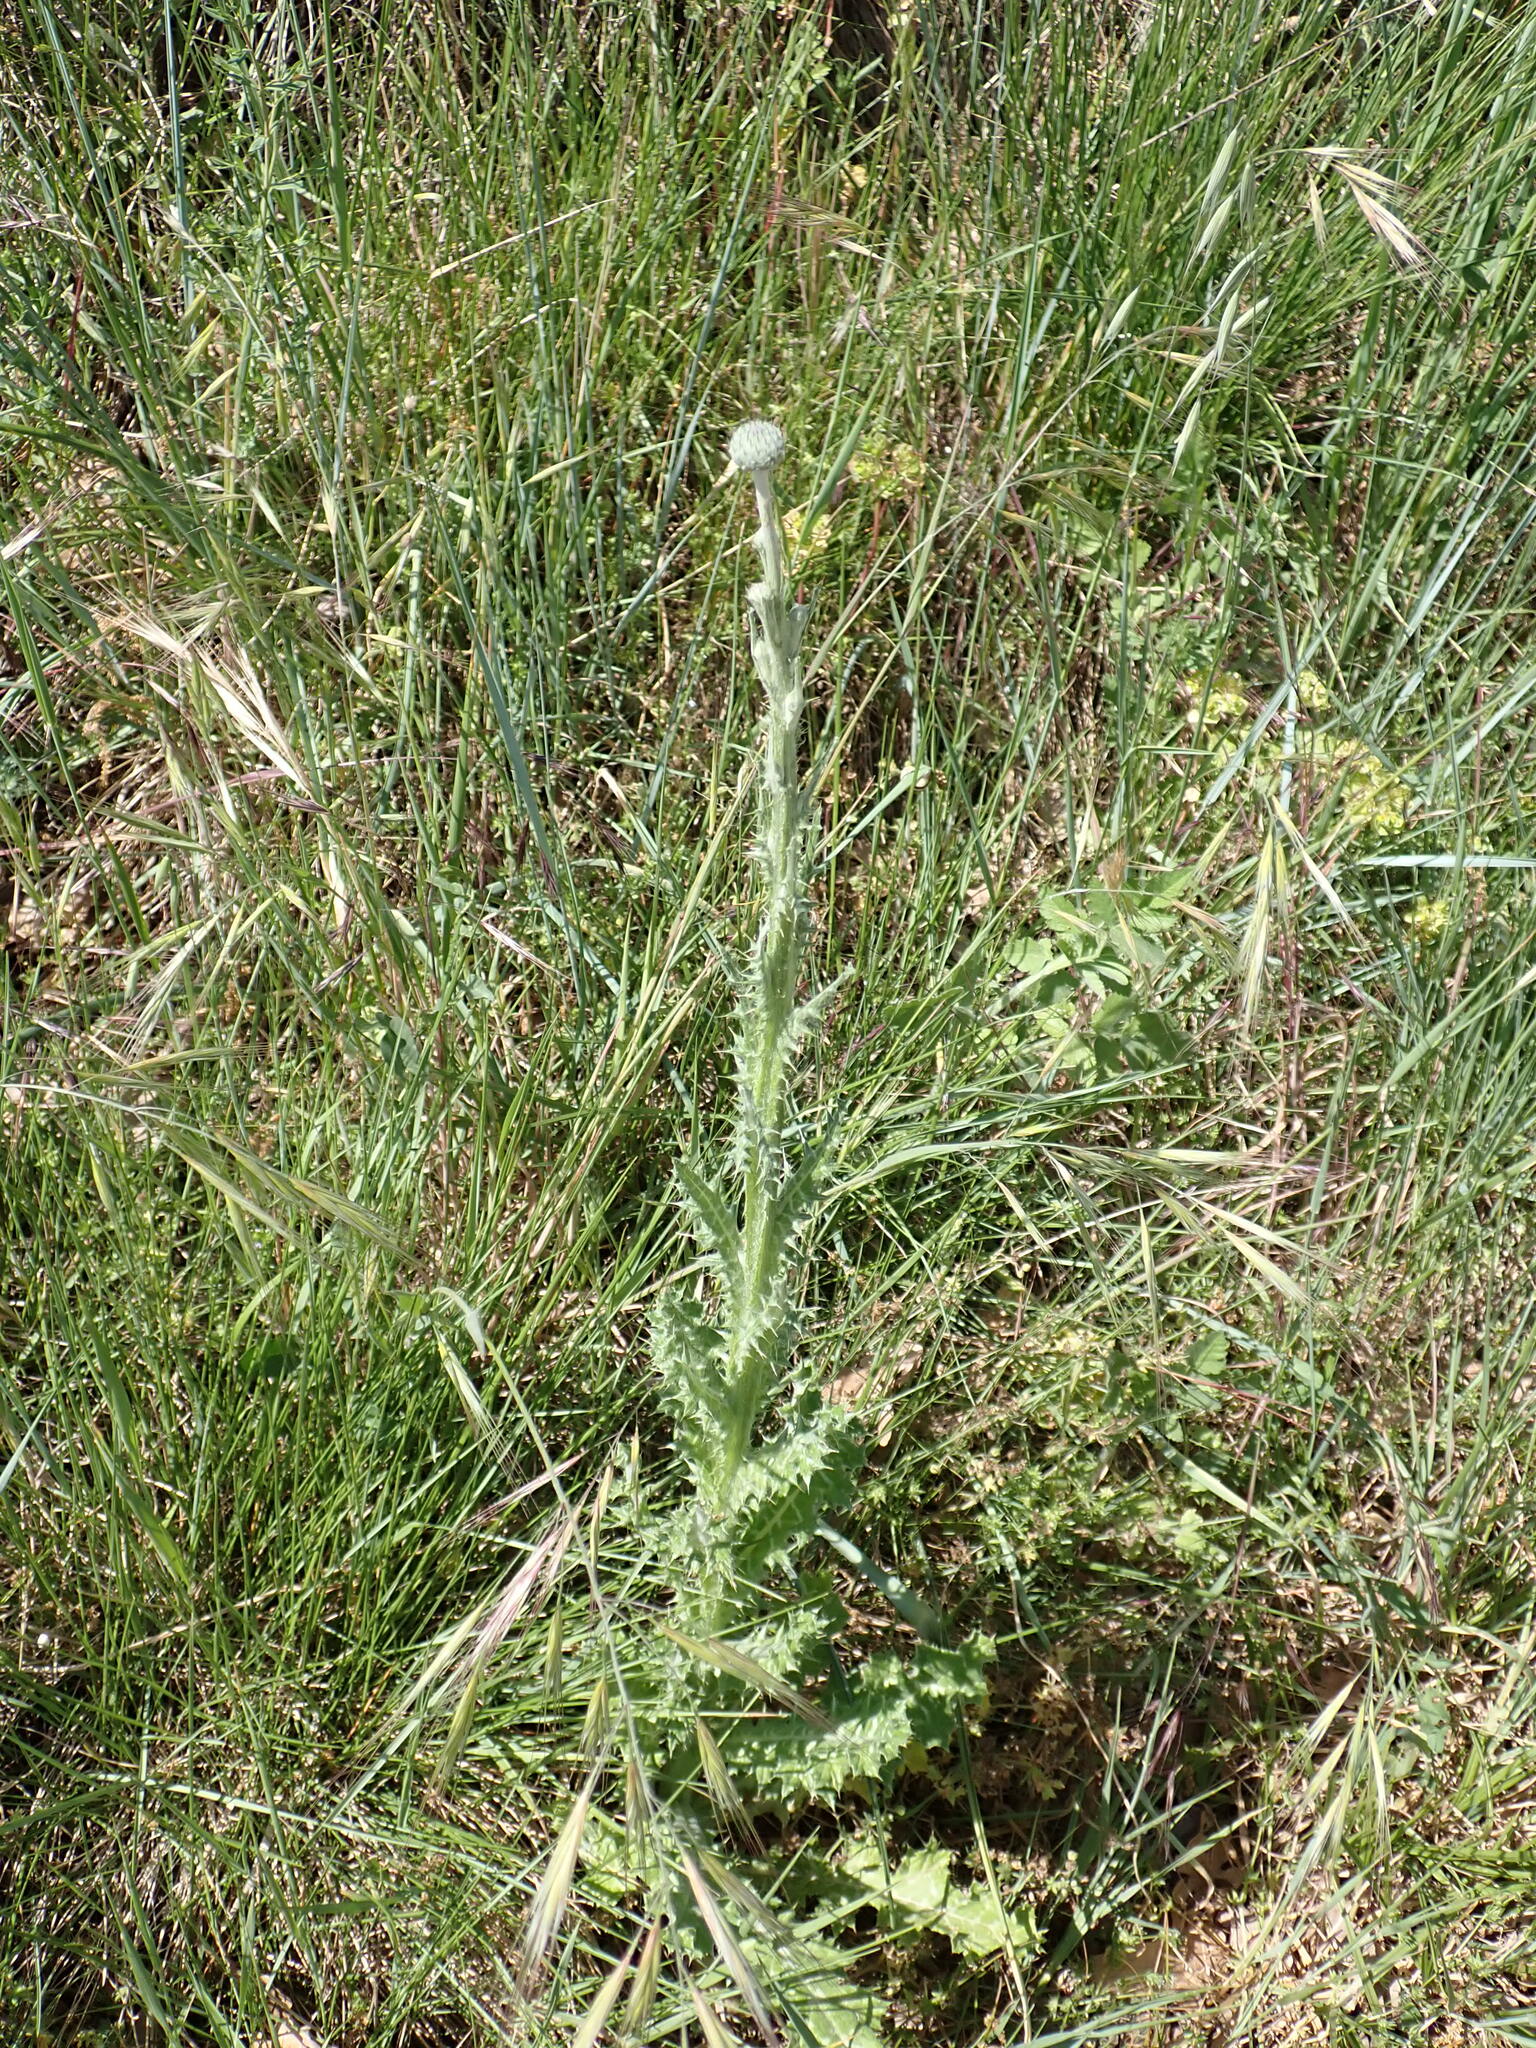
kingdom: Plantae
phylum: Tracheophyta
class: Magnoliopsida
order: Asterales
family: Asteraceae
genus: Tyrimnus
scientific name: Tyrimnus leucographus
